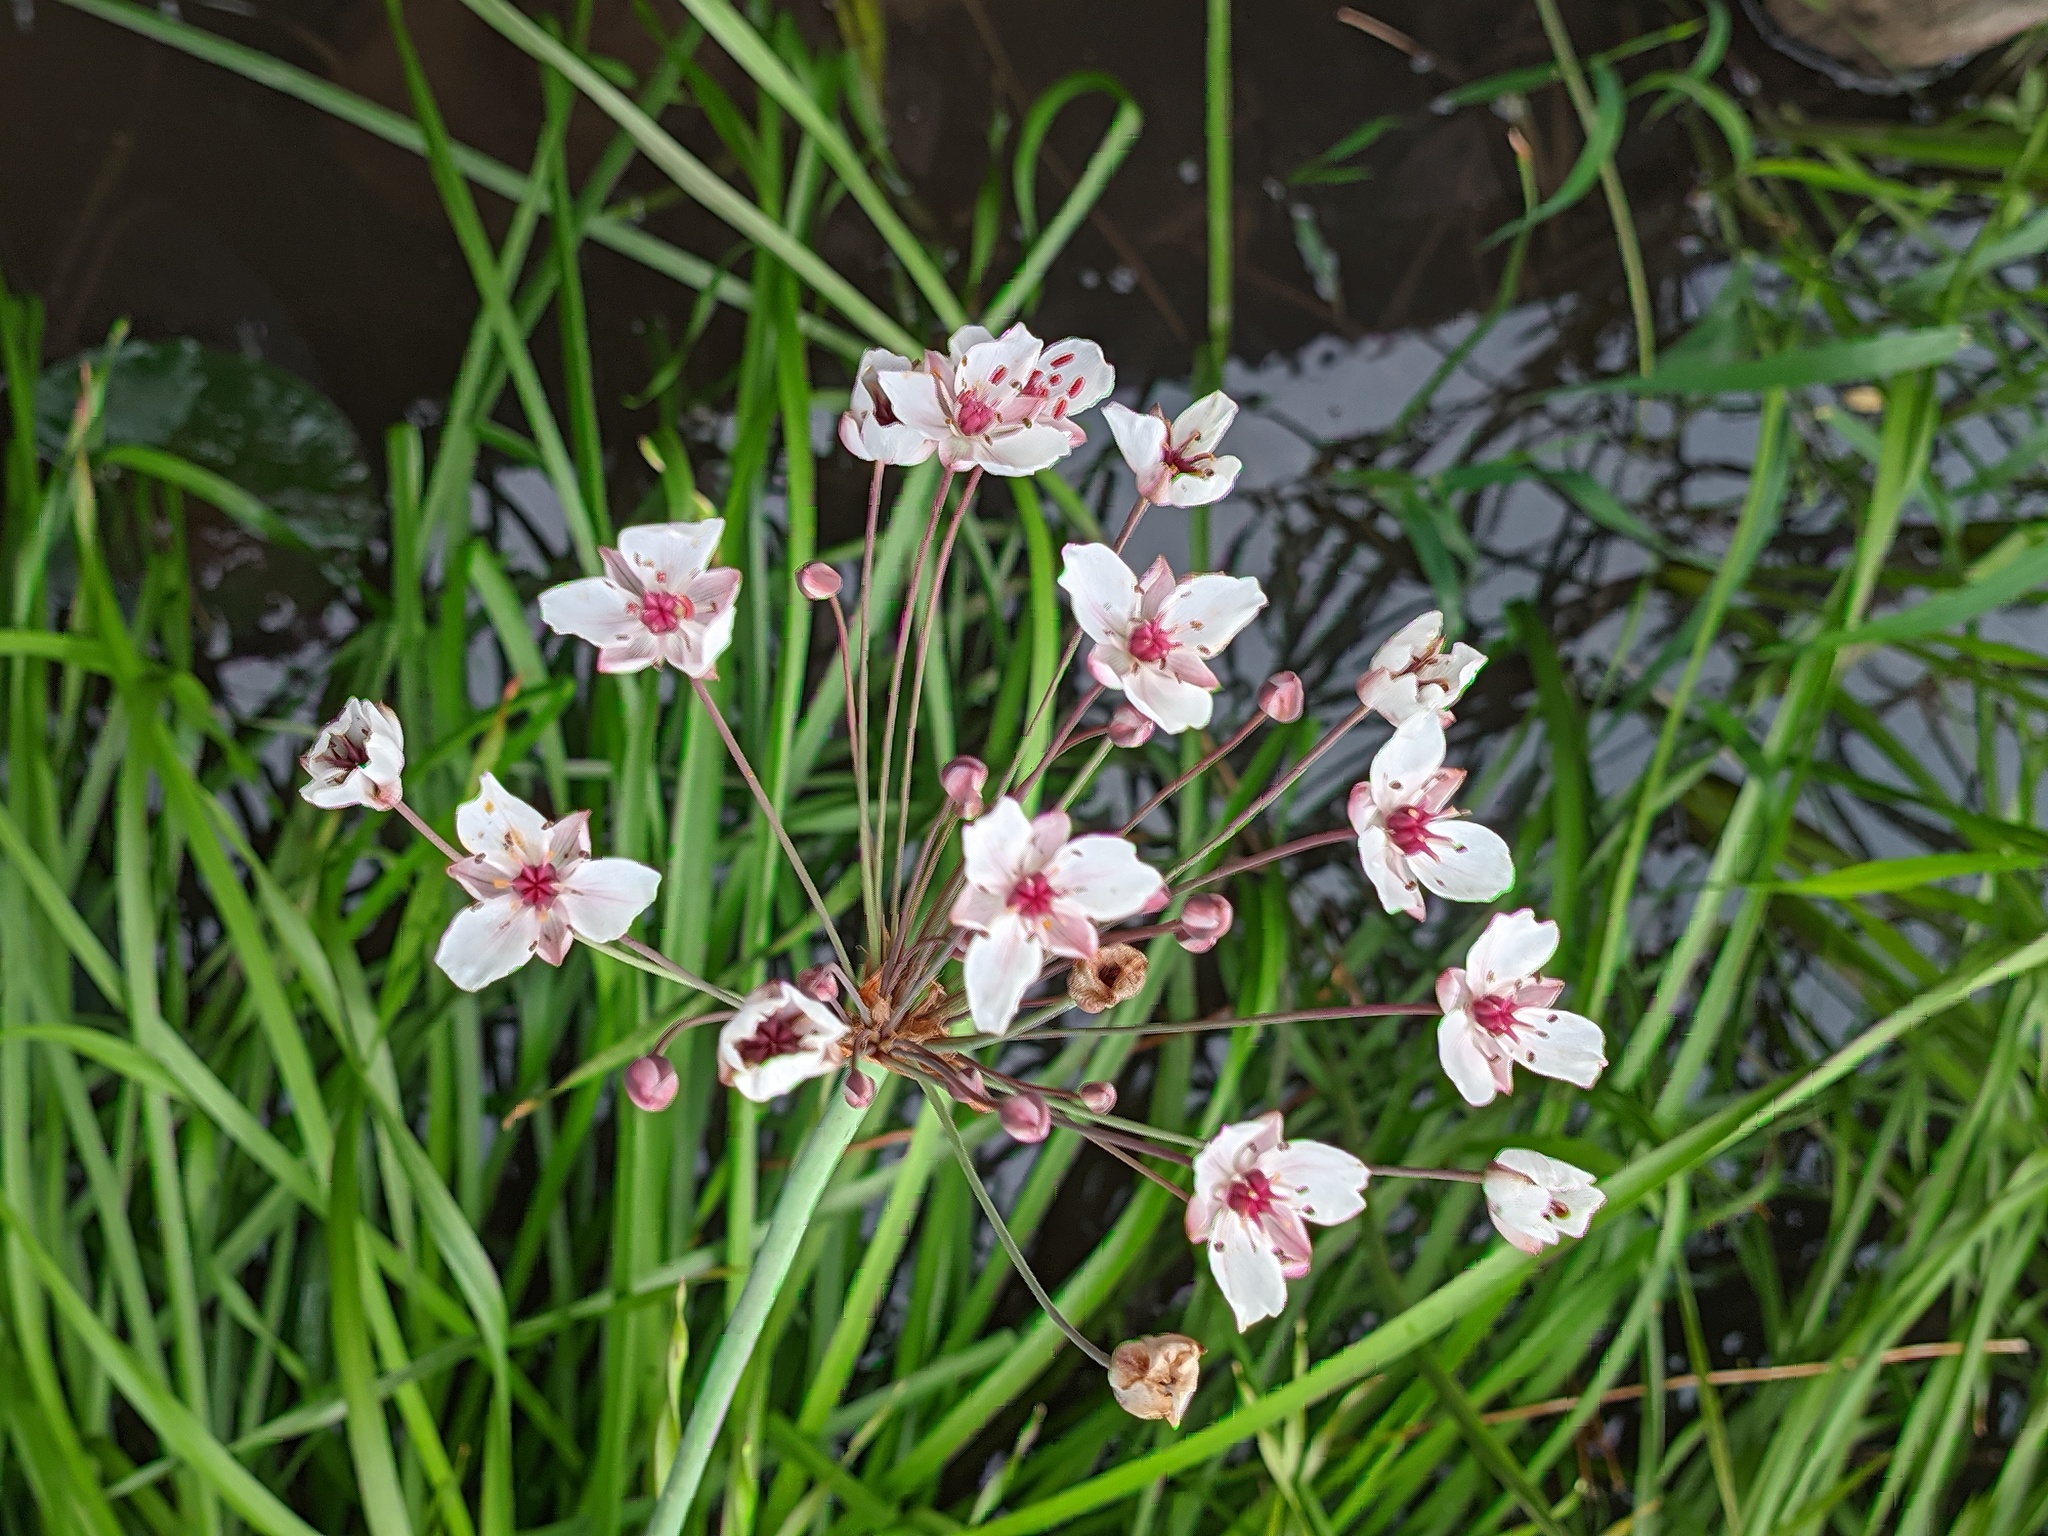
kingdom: Plantae
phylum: Tracheophyta
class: Liliopsida
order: Alismatales
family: Butomaceae
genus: Butomus
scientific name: Butomus umbellatus
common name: Flowering-rush
